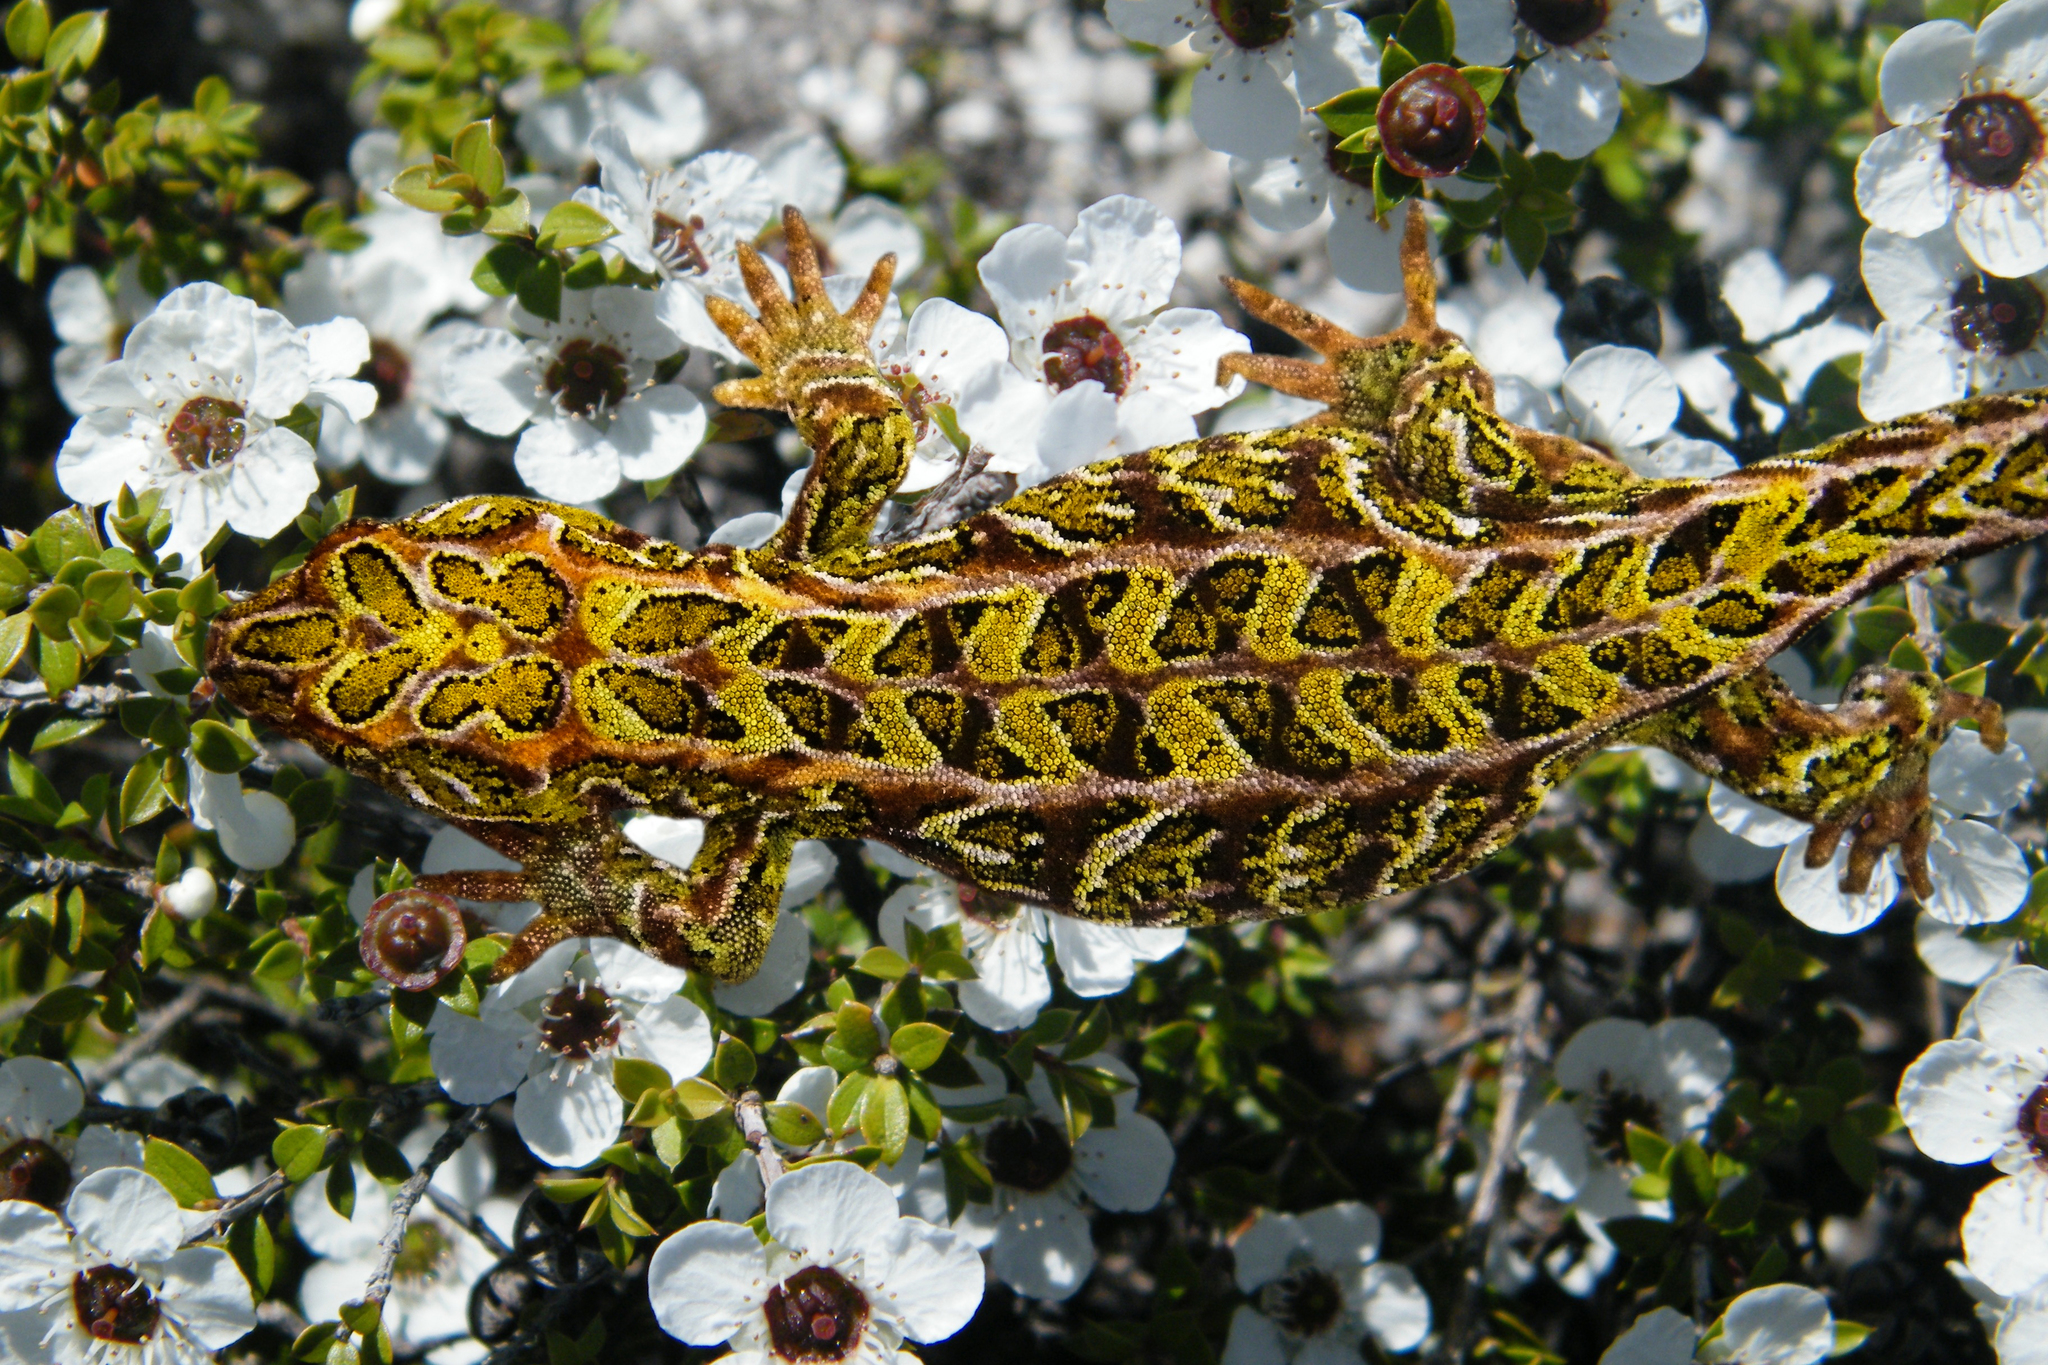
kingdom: Animalia
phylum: Chordata
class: Squamata
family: Diplodactylidae
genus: Tukutuku
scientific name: Tukutuku rakiurae
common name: Harlequin gecko
